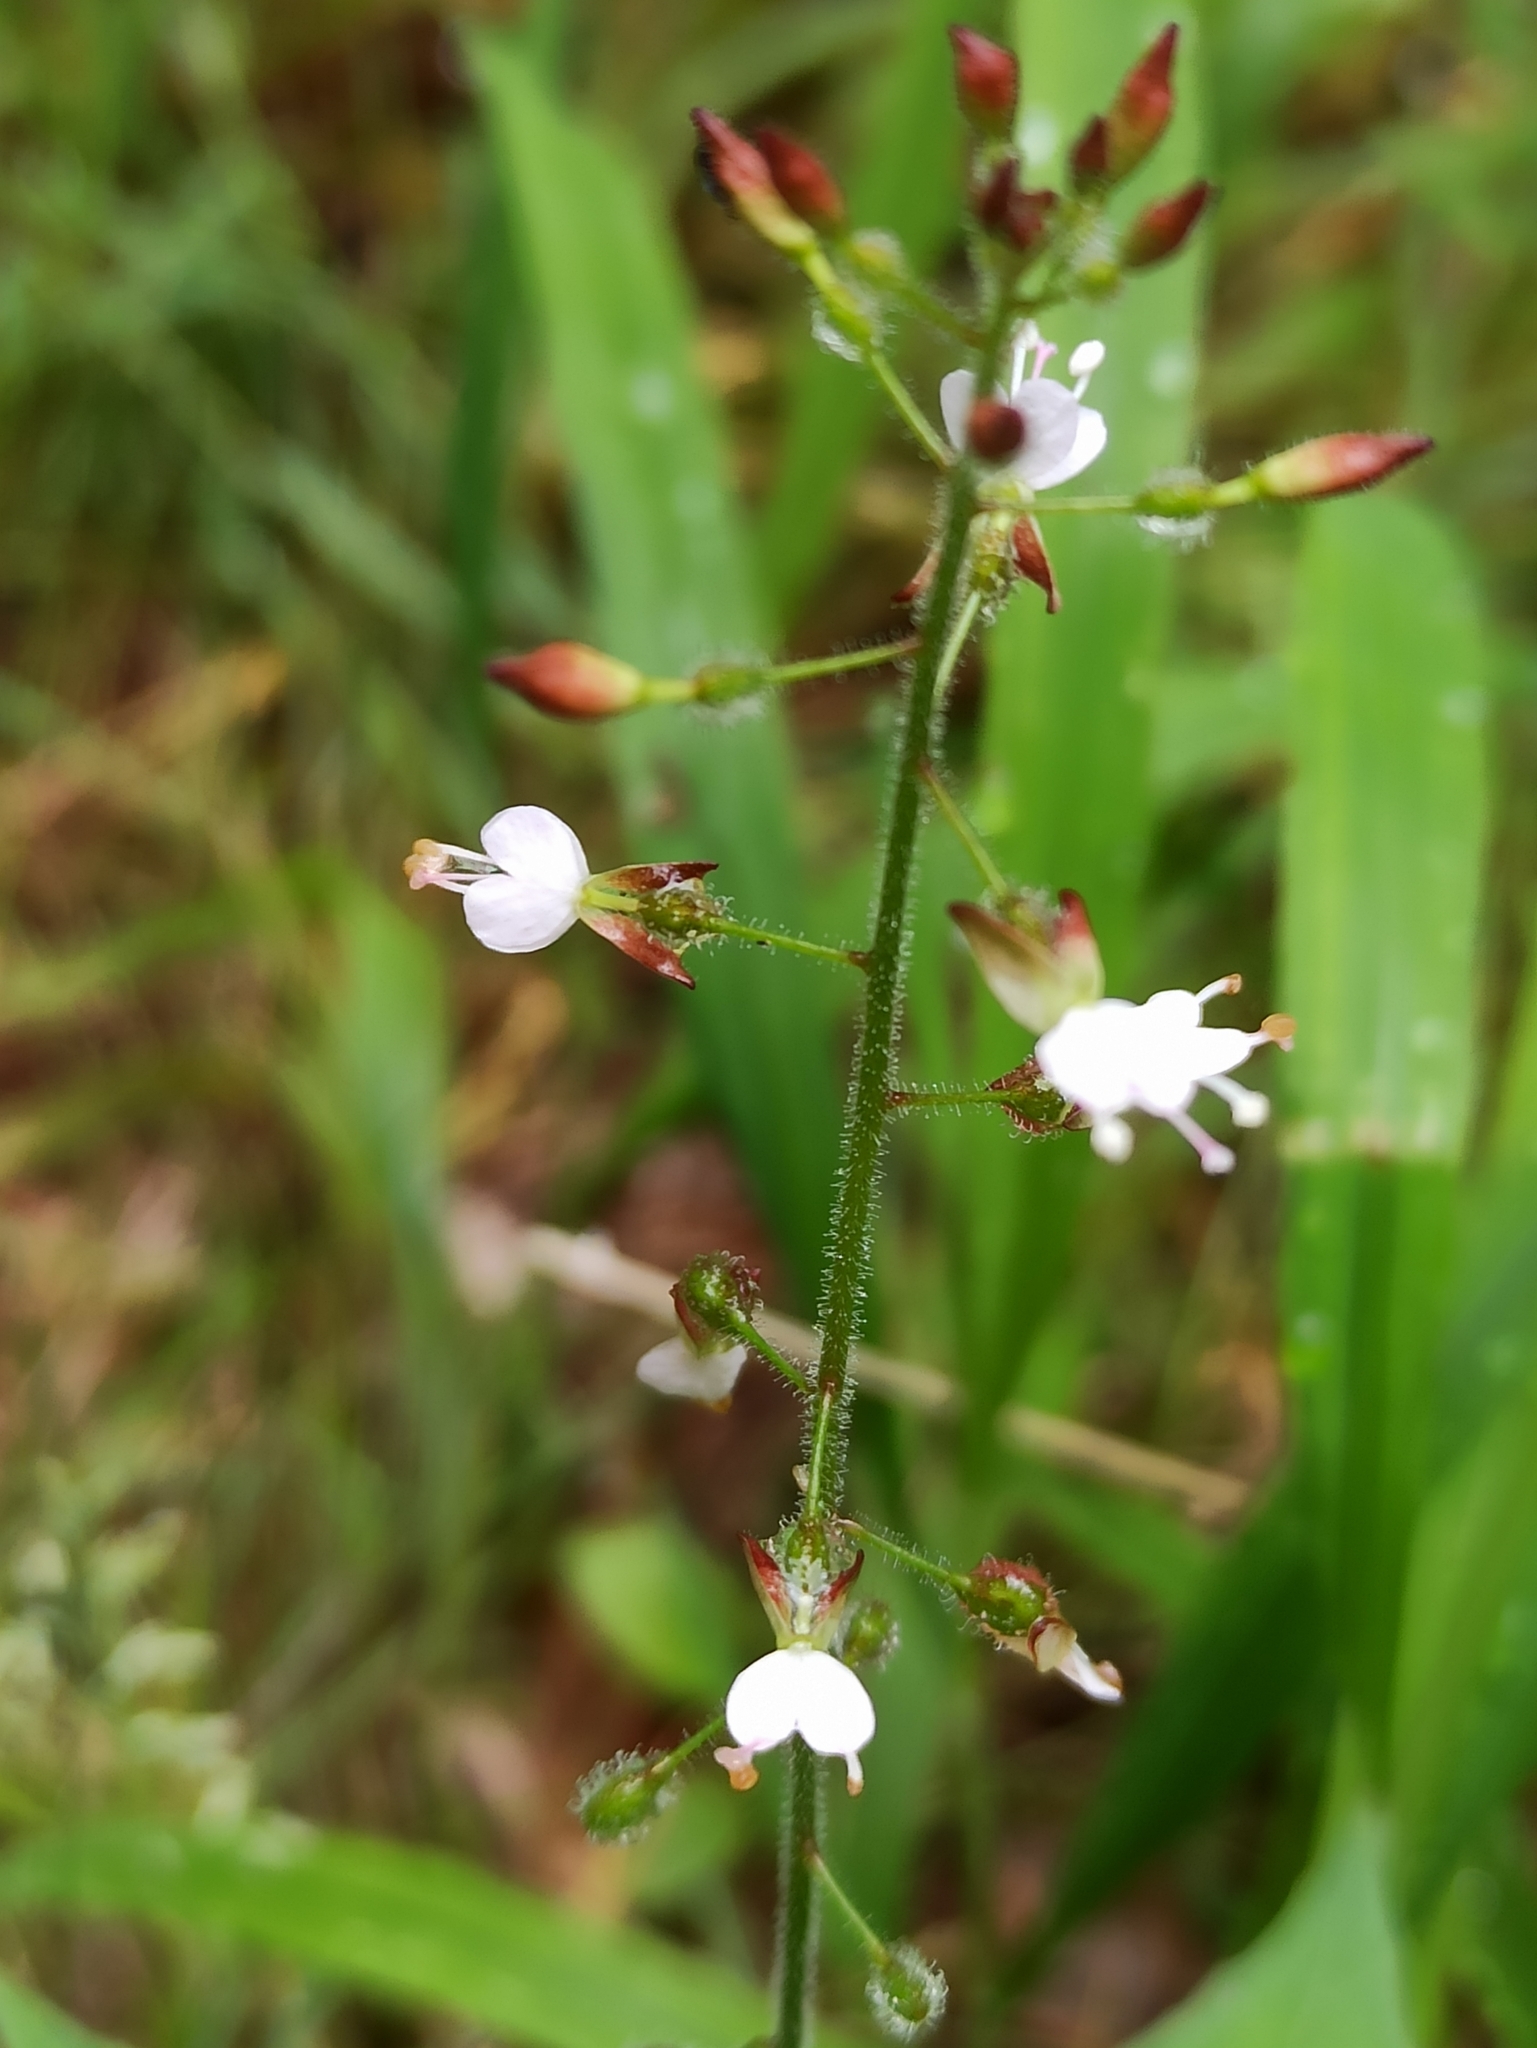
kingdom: Plantae
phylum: Tracheophyta
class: Magnoliopsida
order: Myrtales
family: Onagraceae
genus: Circaea
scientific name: Circaea lutetiana
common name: Enchanter's-nightshade
